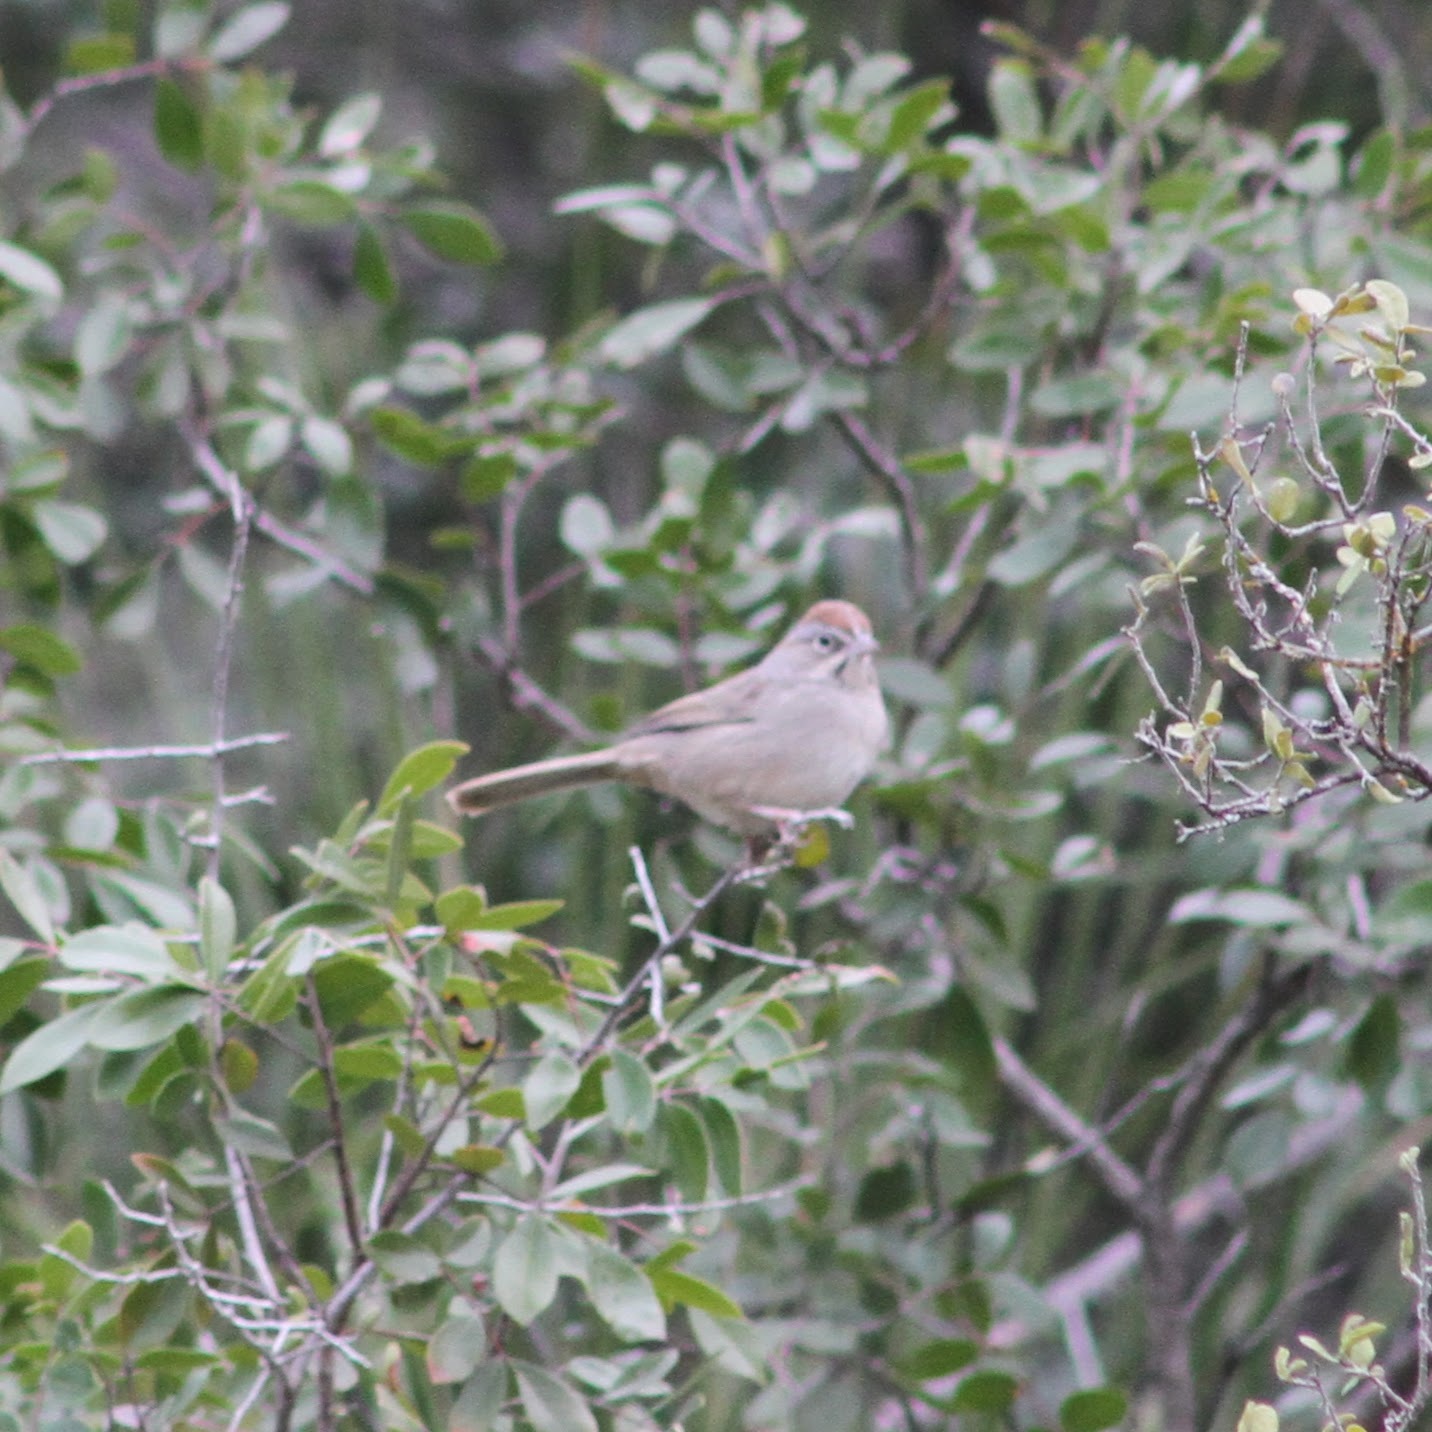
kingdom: Animalia
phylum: Chordata
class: Aves
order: Passeriformes
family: Passerellidae
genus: Aimophila
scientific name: Aimophila ruficeps
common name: Rufous-crowned sparrow
